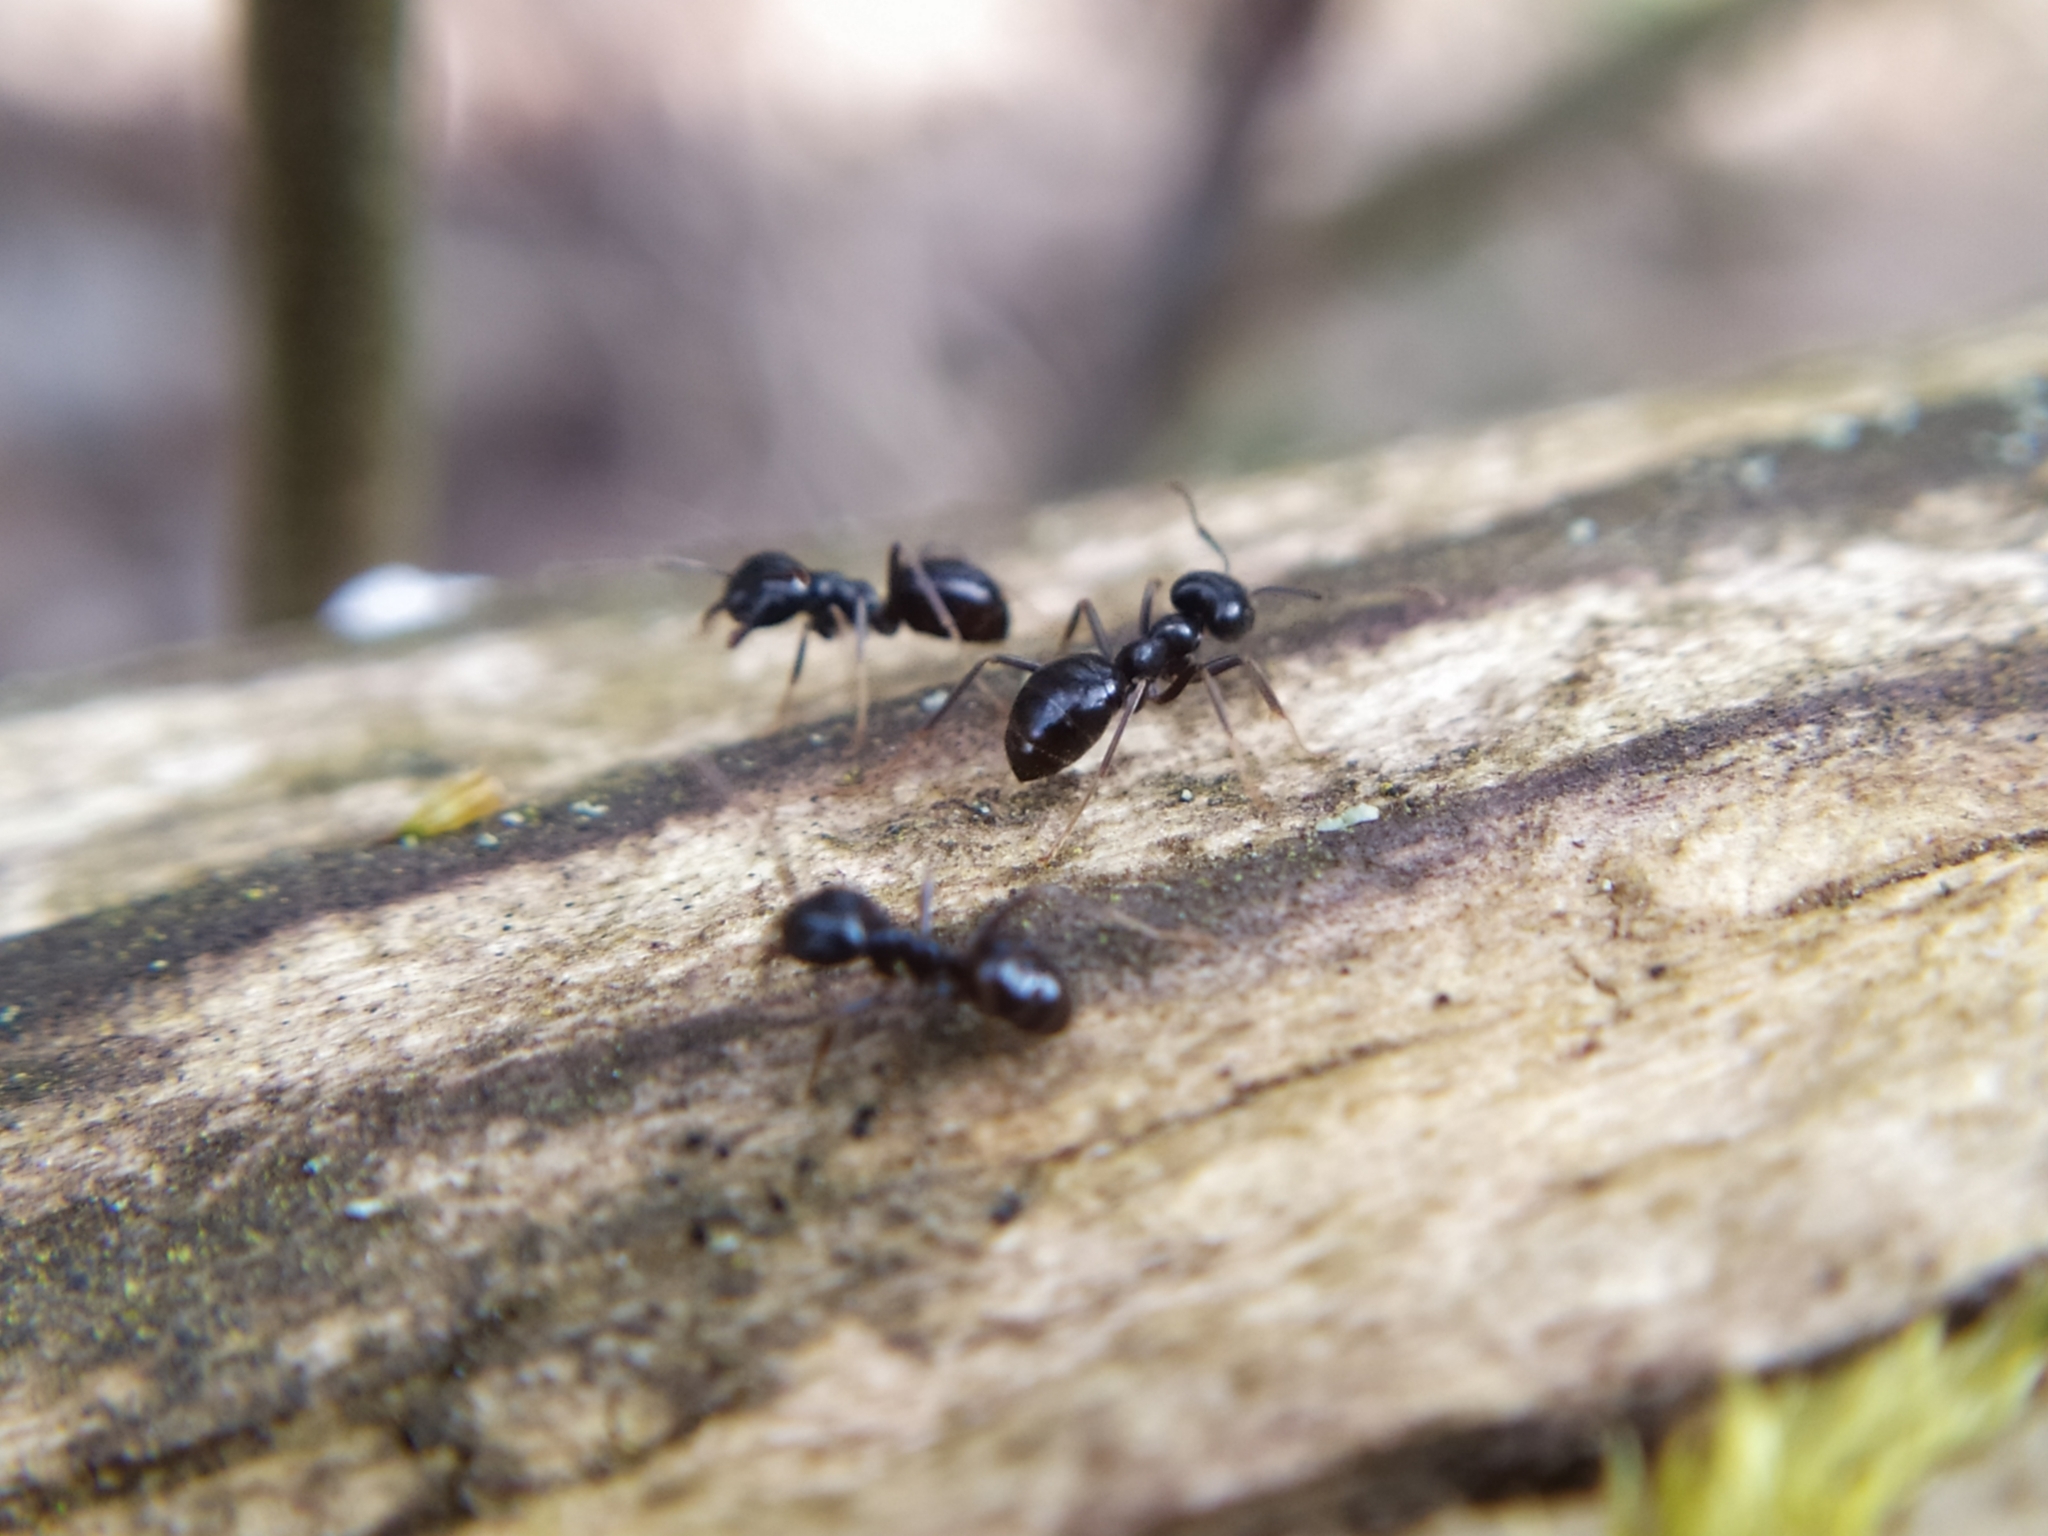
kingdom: Animalia
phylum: Arthropoda
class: Insecta
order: Hymenoptera
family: Formicidae
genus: Lasius
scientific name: Lasius fuliginosus
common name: Jet ant
